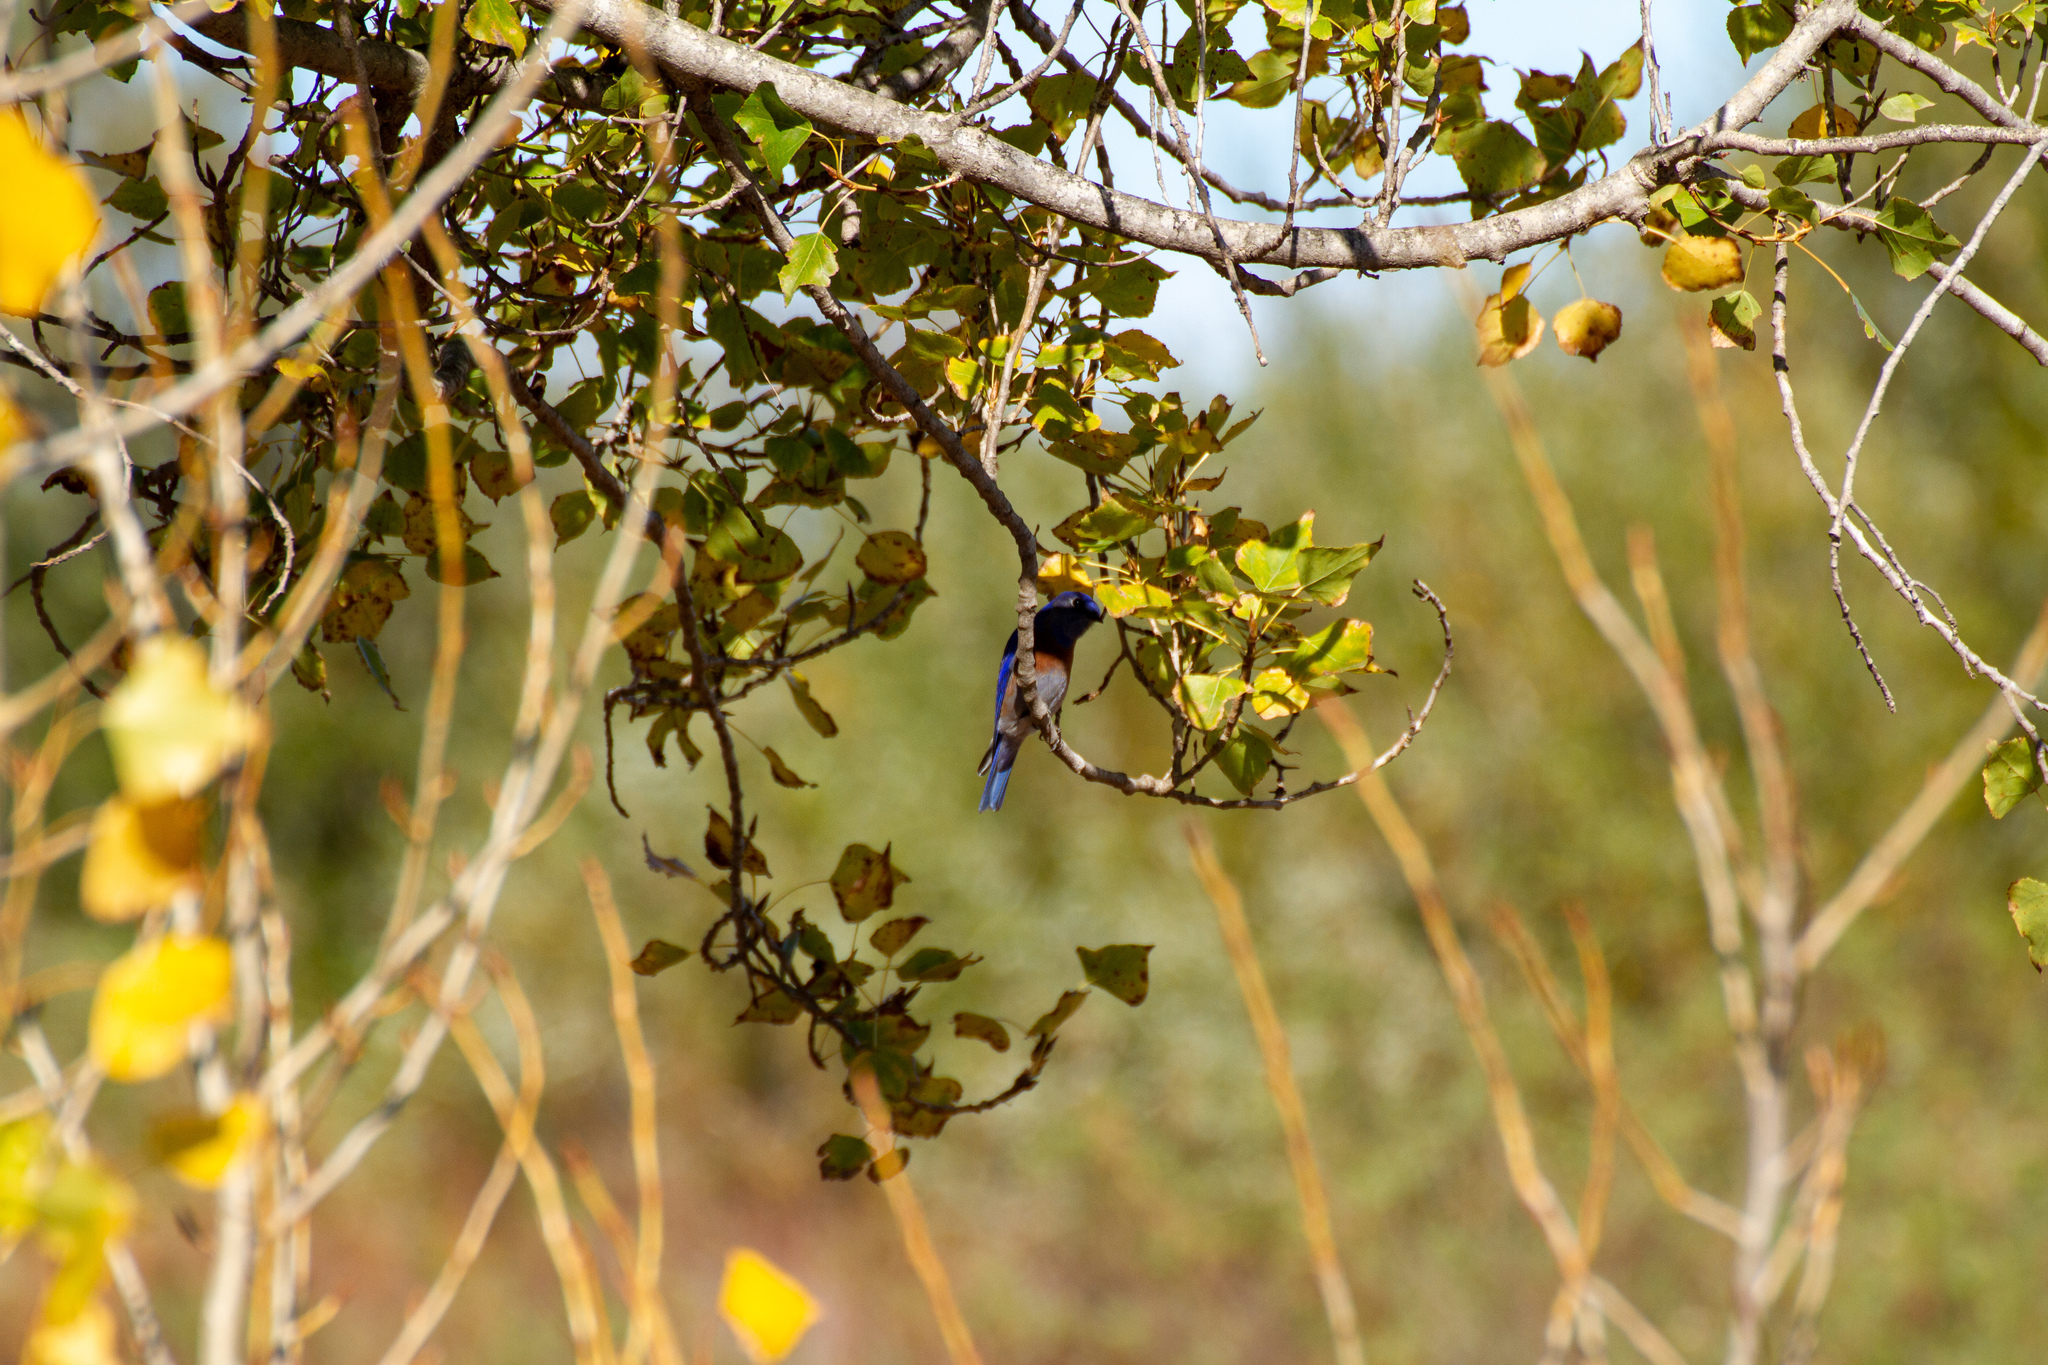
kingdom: Animalia
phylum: Chordata
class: Aves
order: Passeriformes
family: Turdidae
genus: Sialia
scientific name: Sialia mexicana
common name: Western bluebird
